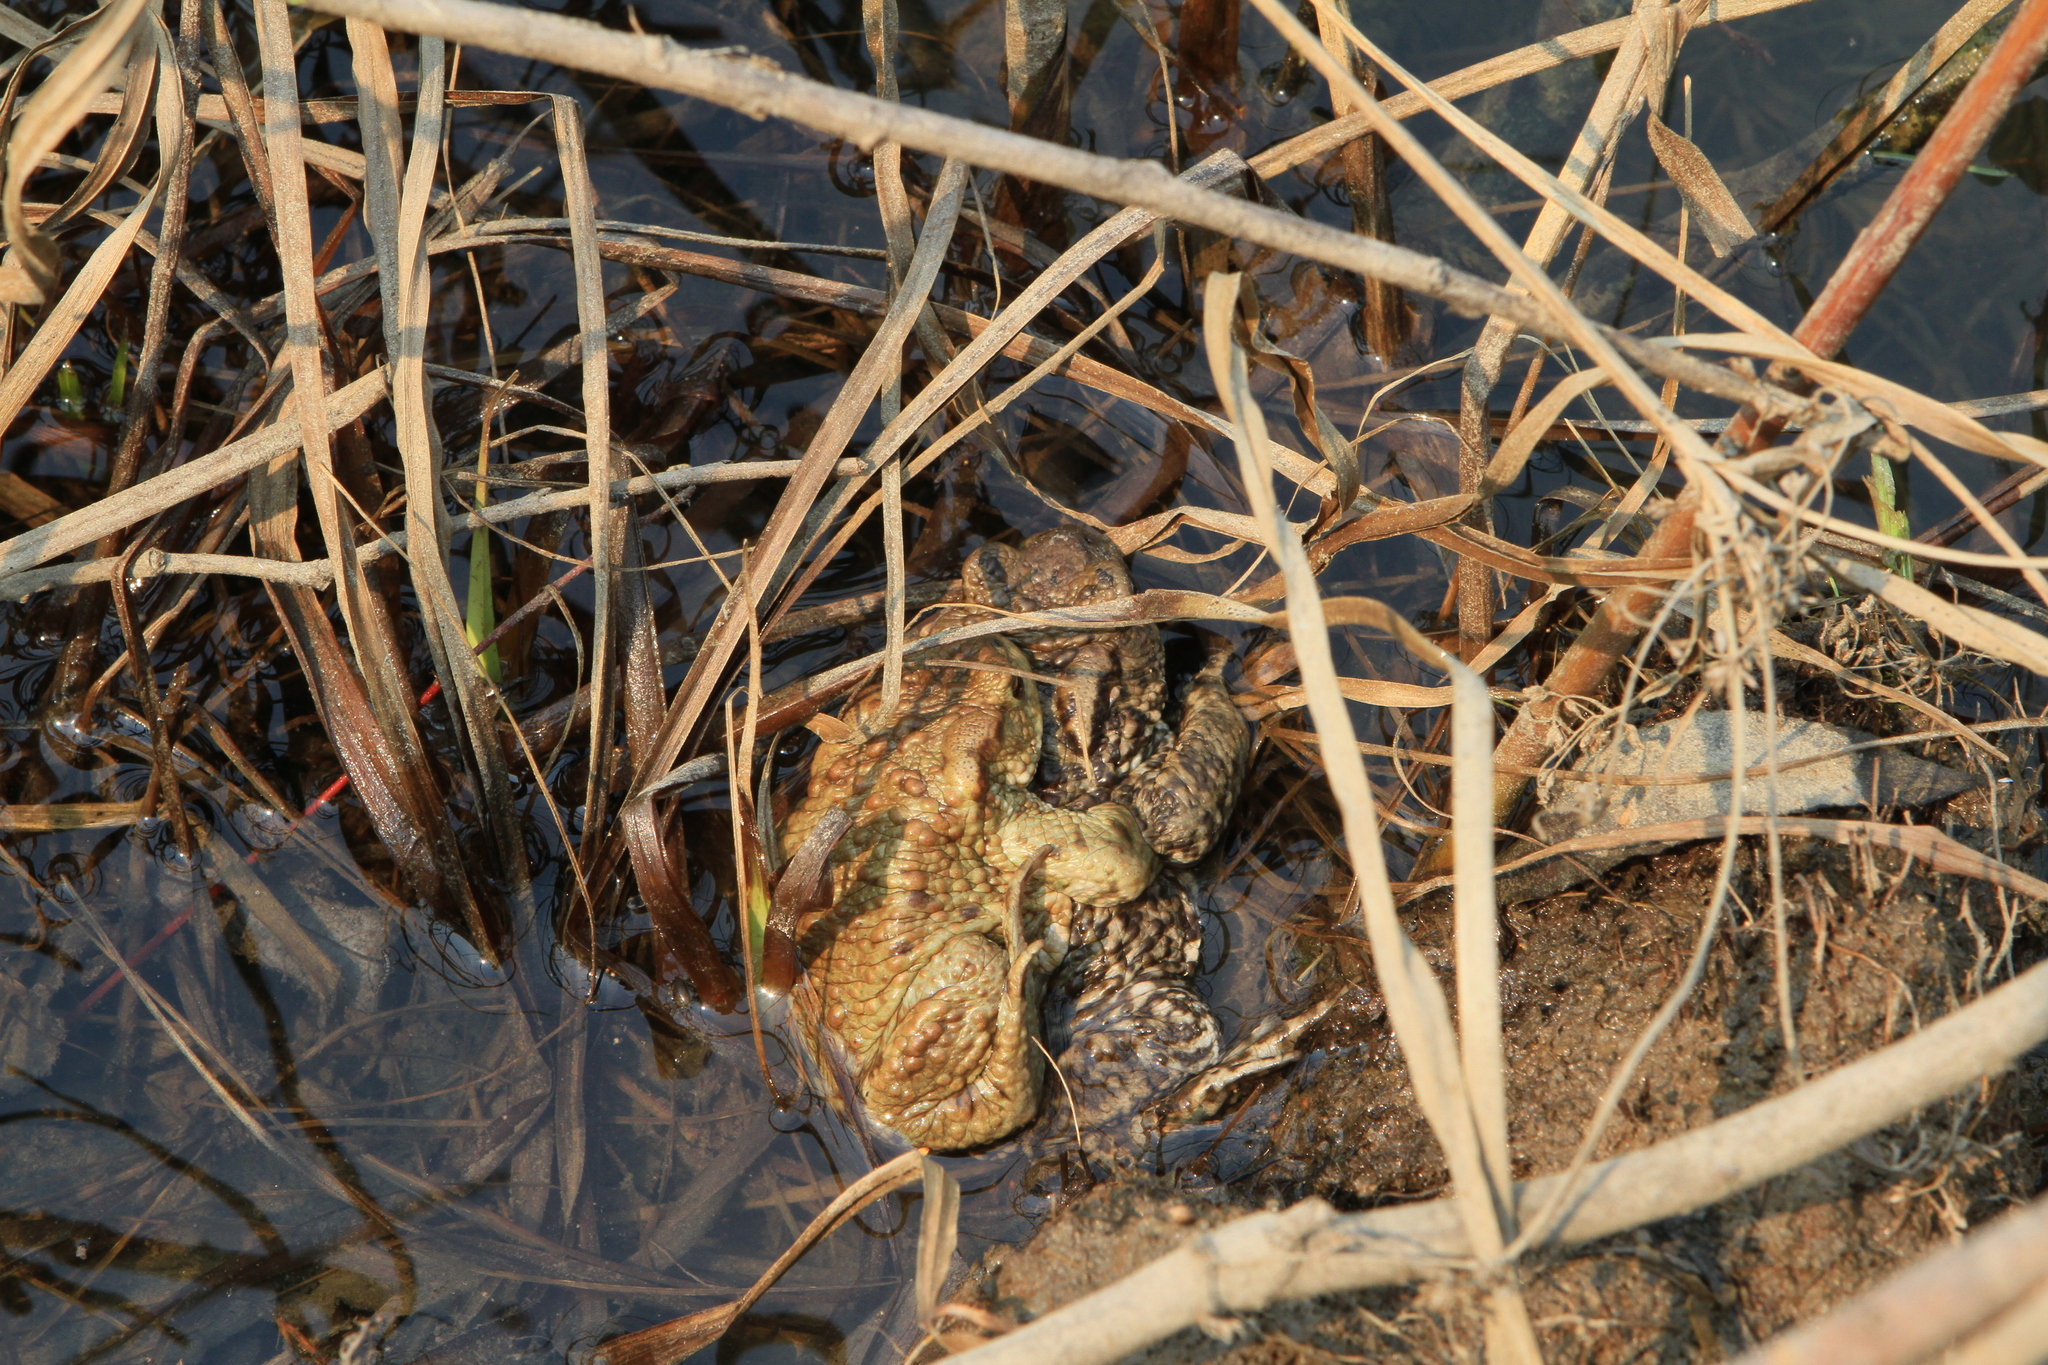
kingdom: Animalia
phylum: Chordata
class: Amphibia
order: Anura
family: Bufonidae
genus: Bufo
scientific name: Bufo bufo
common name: Common toad
